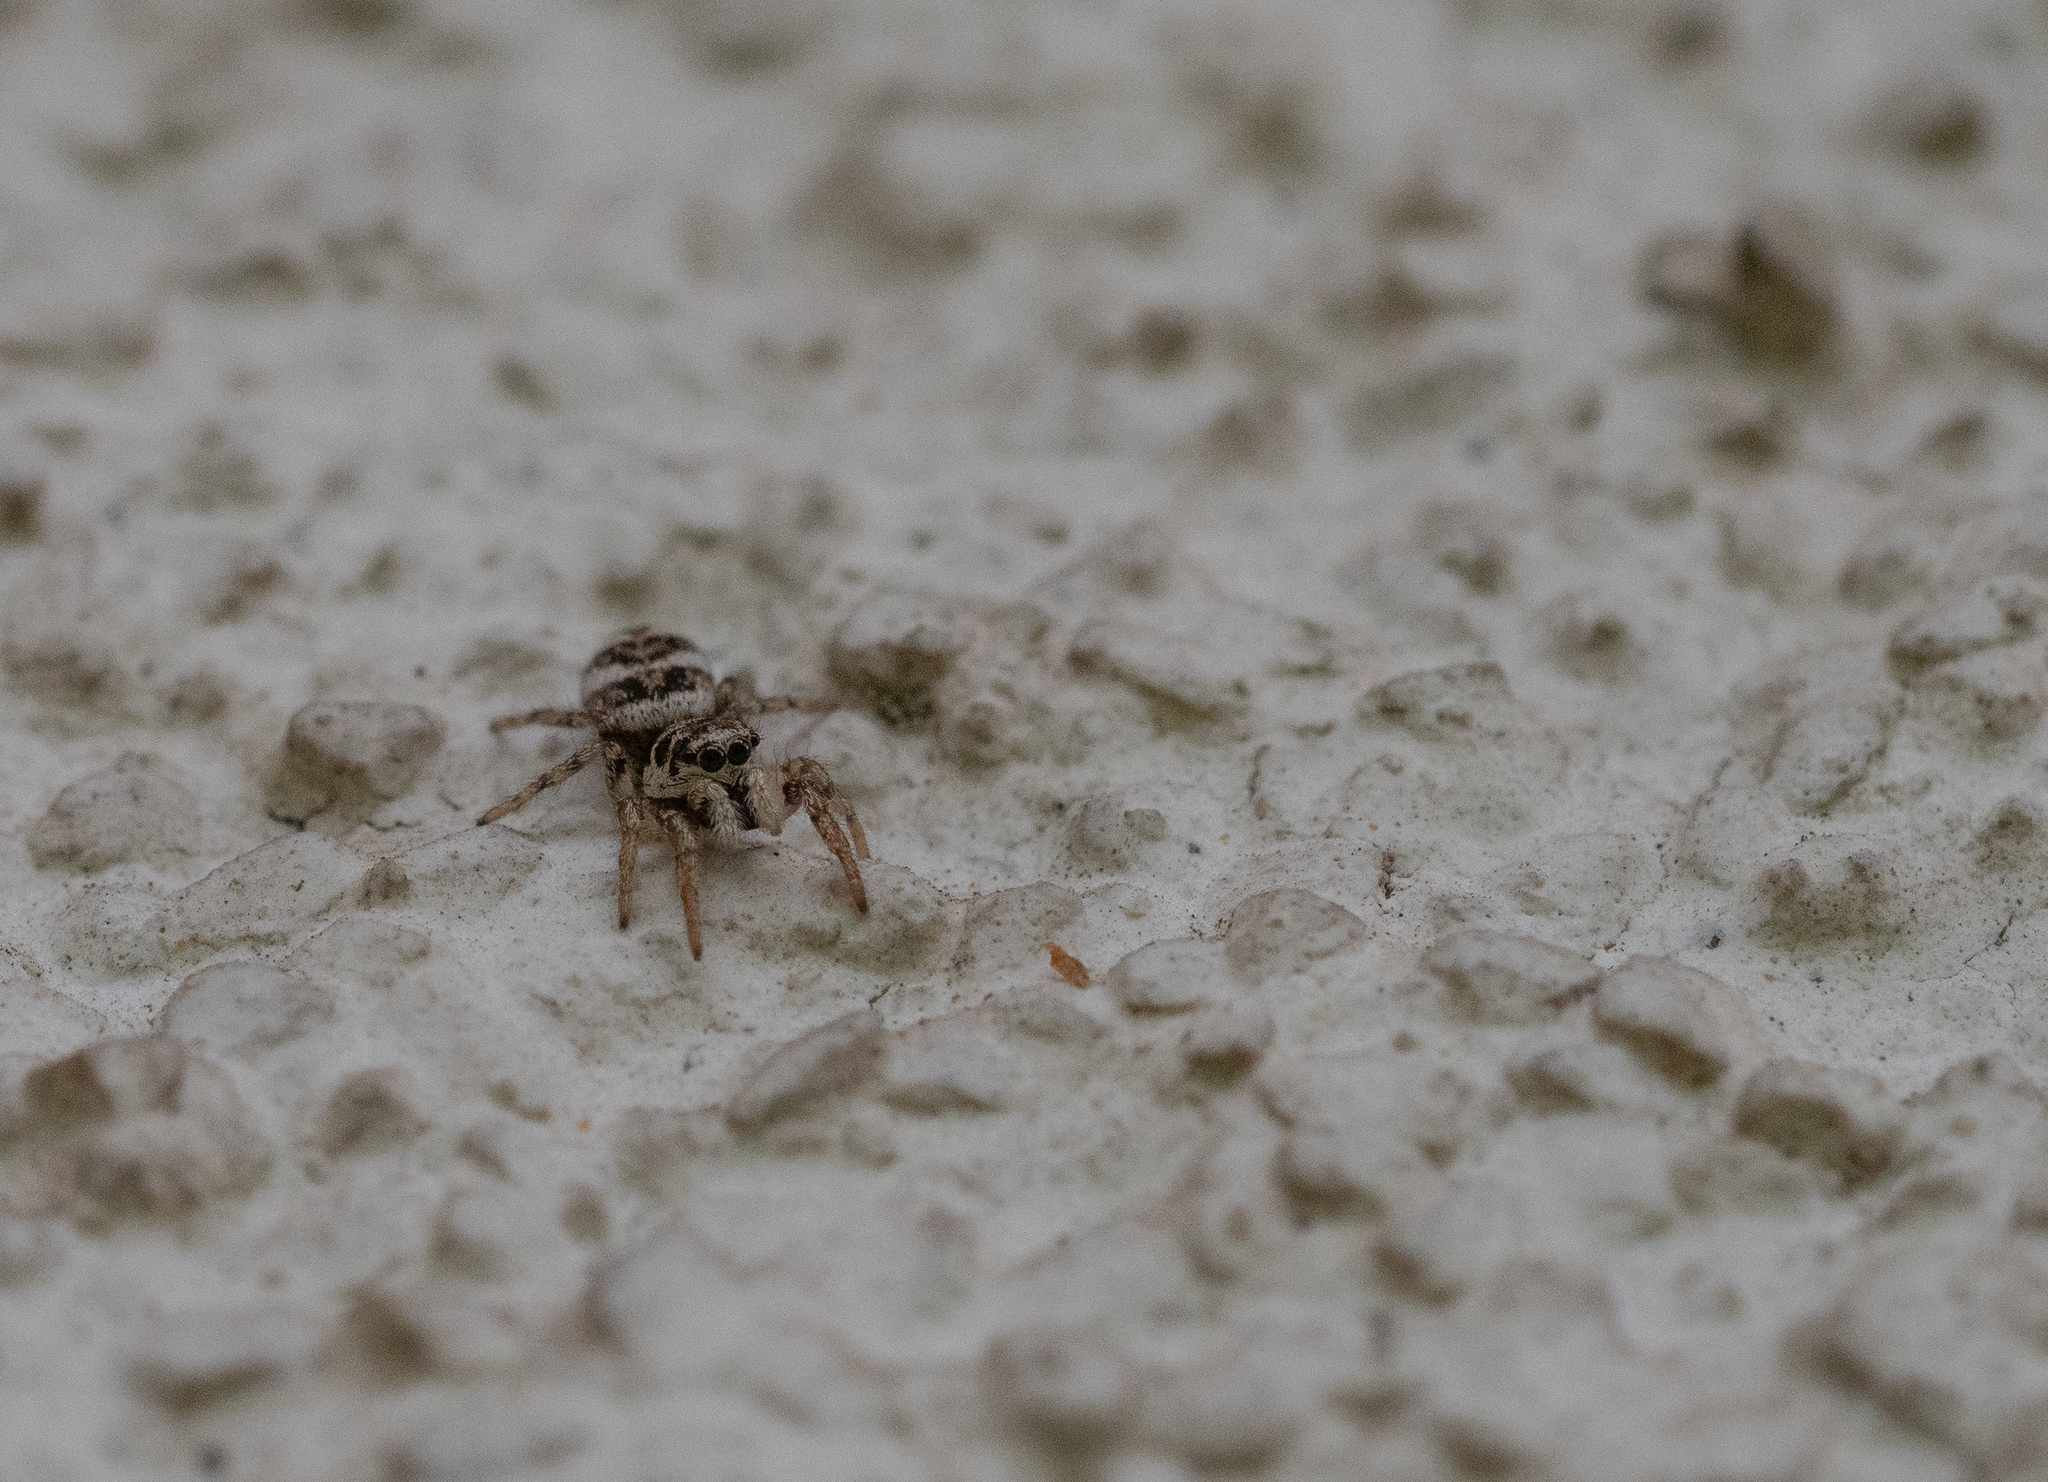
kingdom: Animalia
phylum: Arthropoda
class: Arachnida
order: Araneae
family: Salticidae
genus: Salticus
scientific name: Salticus scenicus
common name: Zebra jumper
